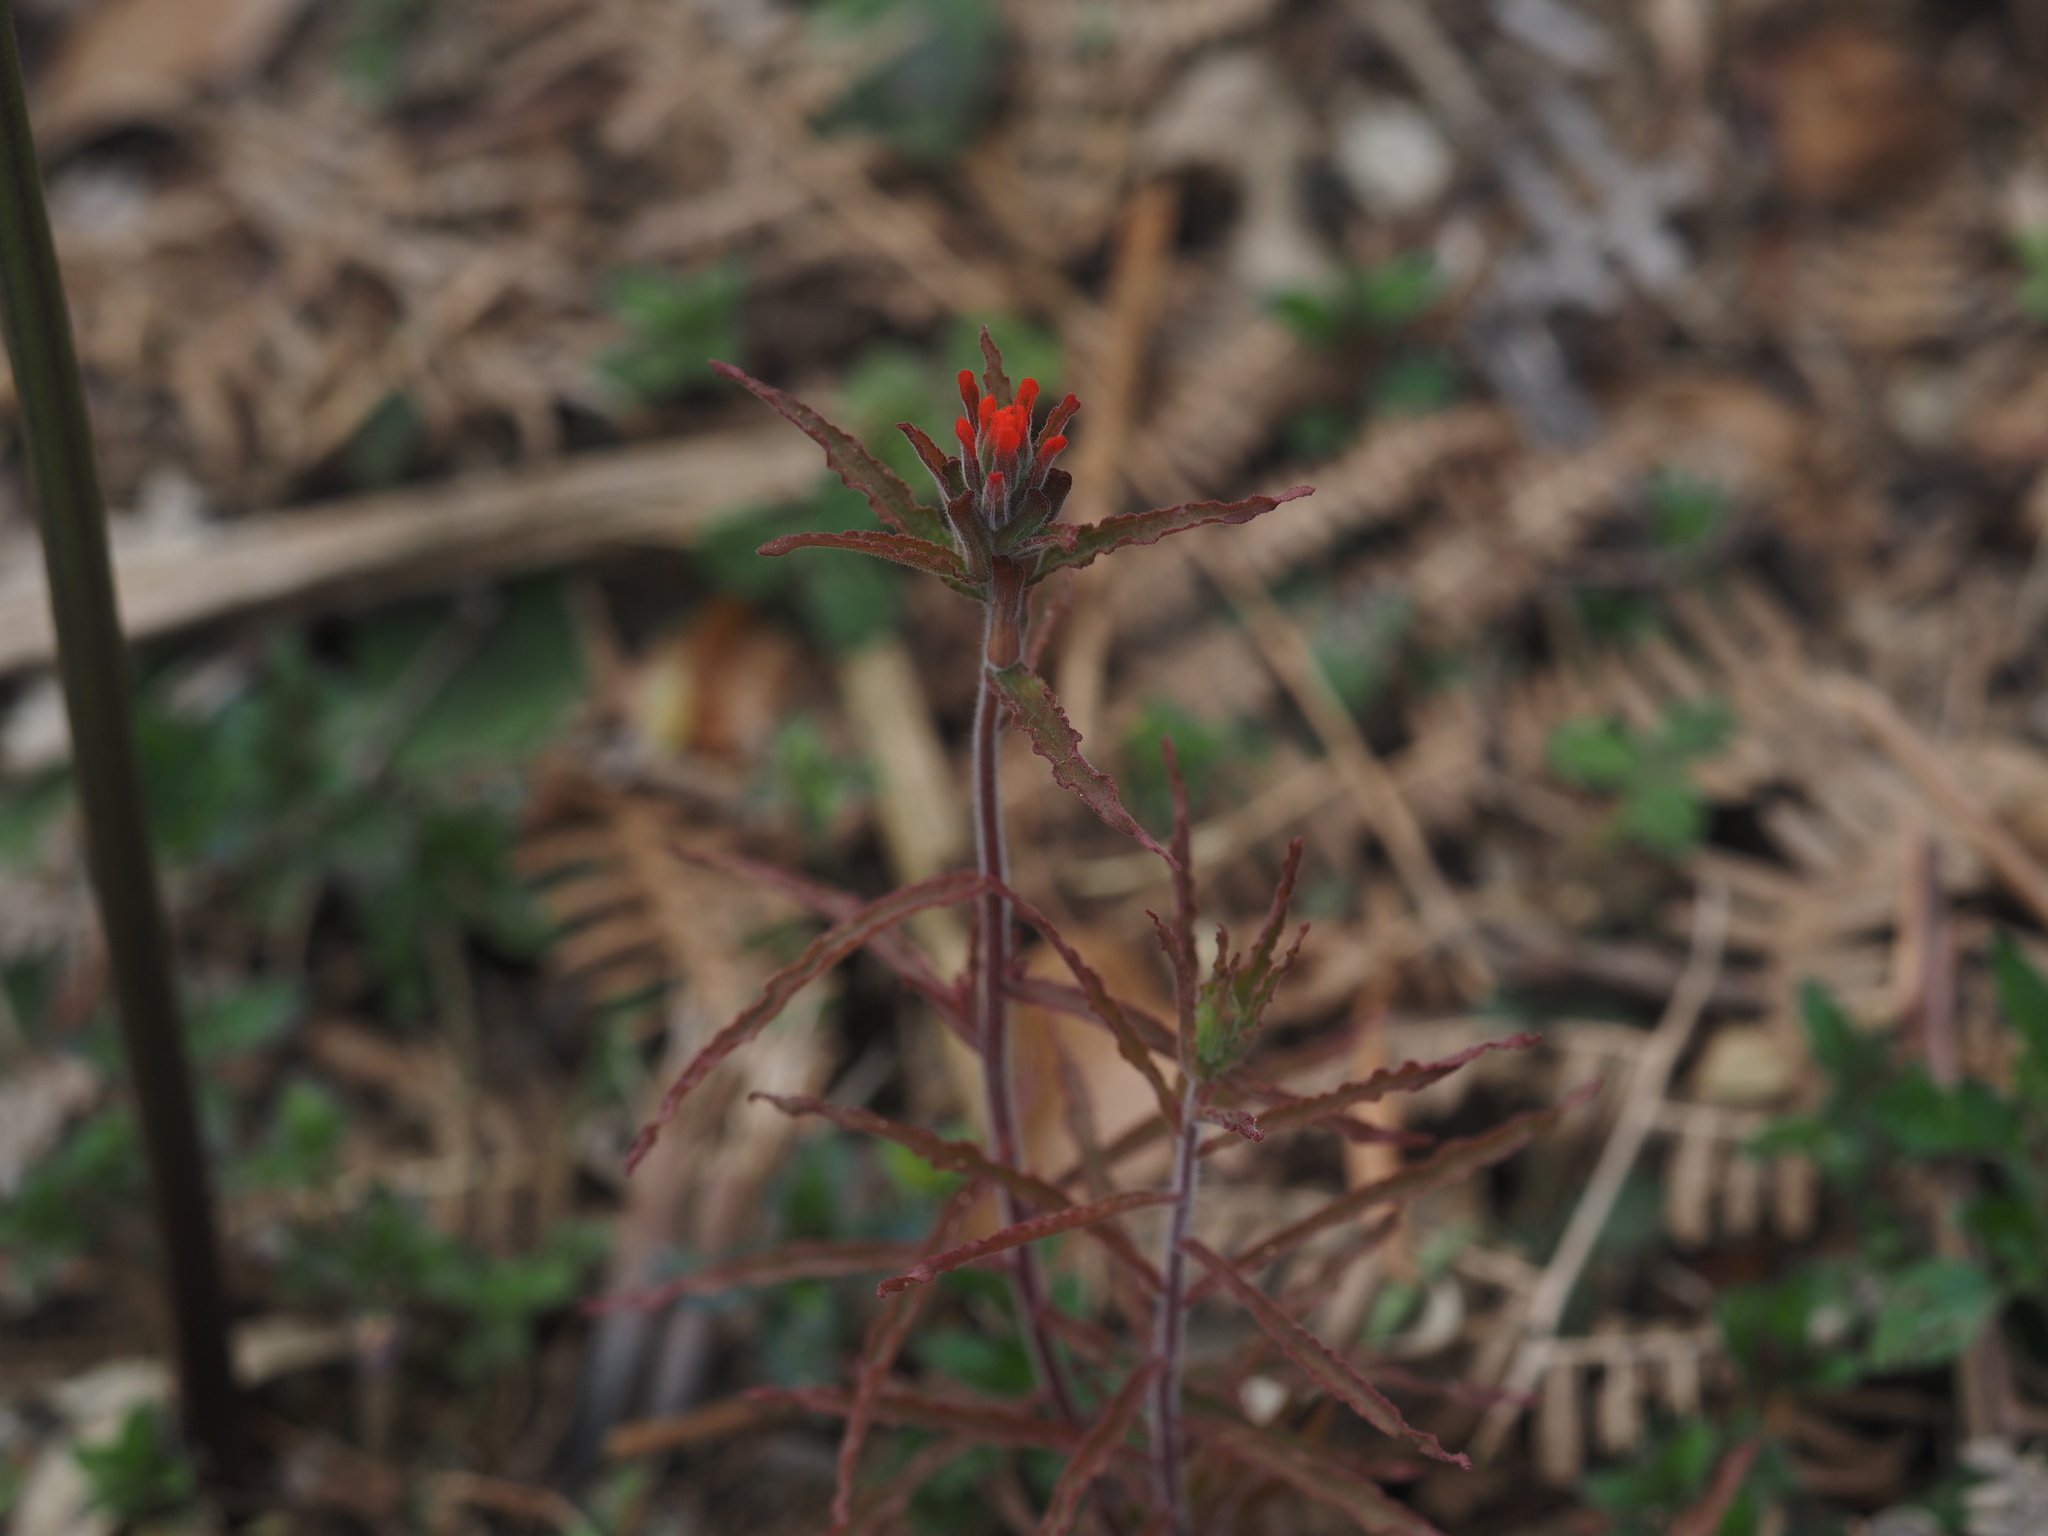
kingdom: Plantae
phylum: Tracheophyta
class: Magnoliopsida
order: Lamiales
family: Orobanchaceae
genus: Castilleja
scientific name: Castilleja arvensis
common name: Indian paintbrush
